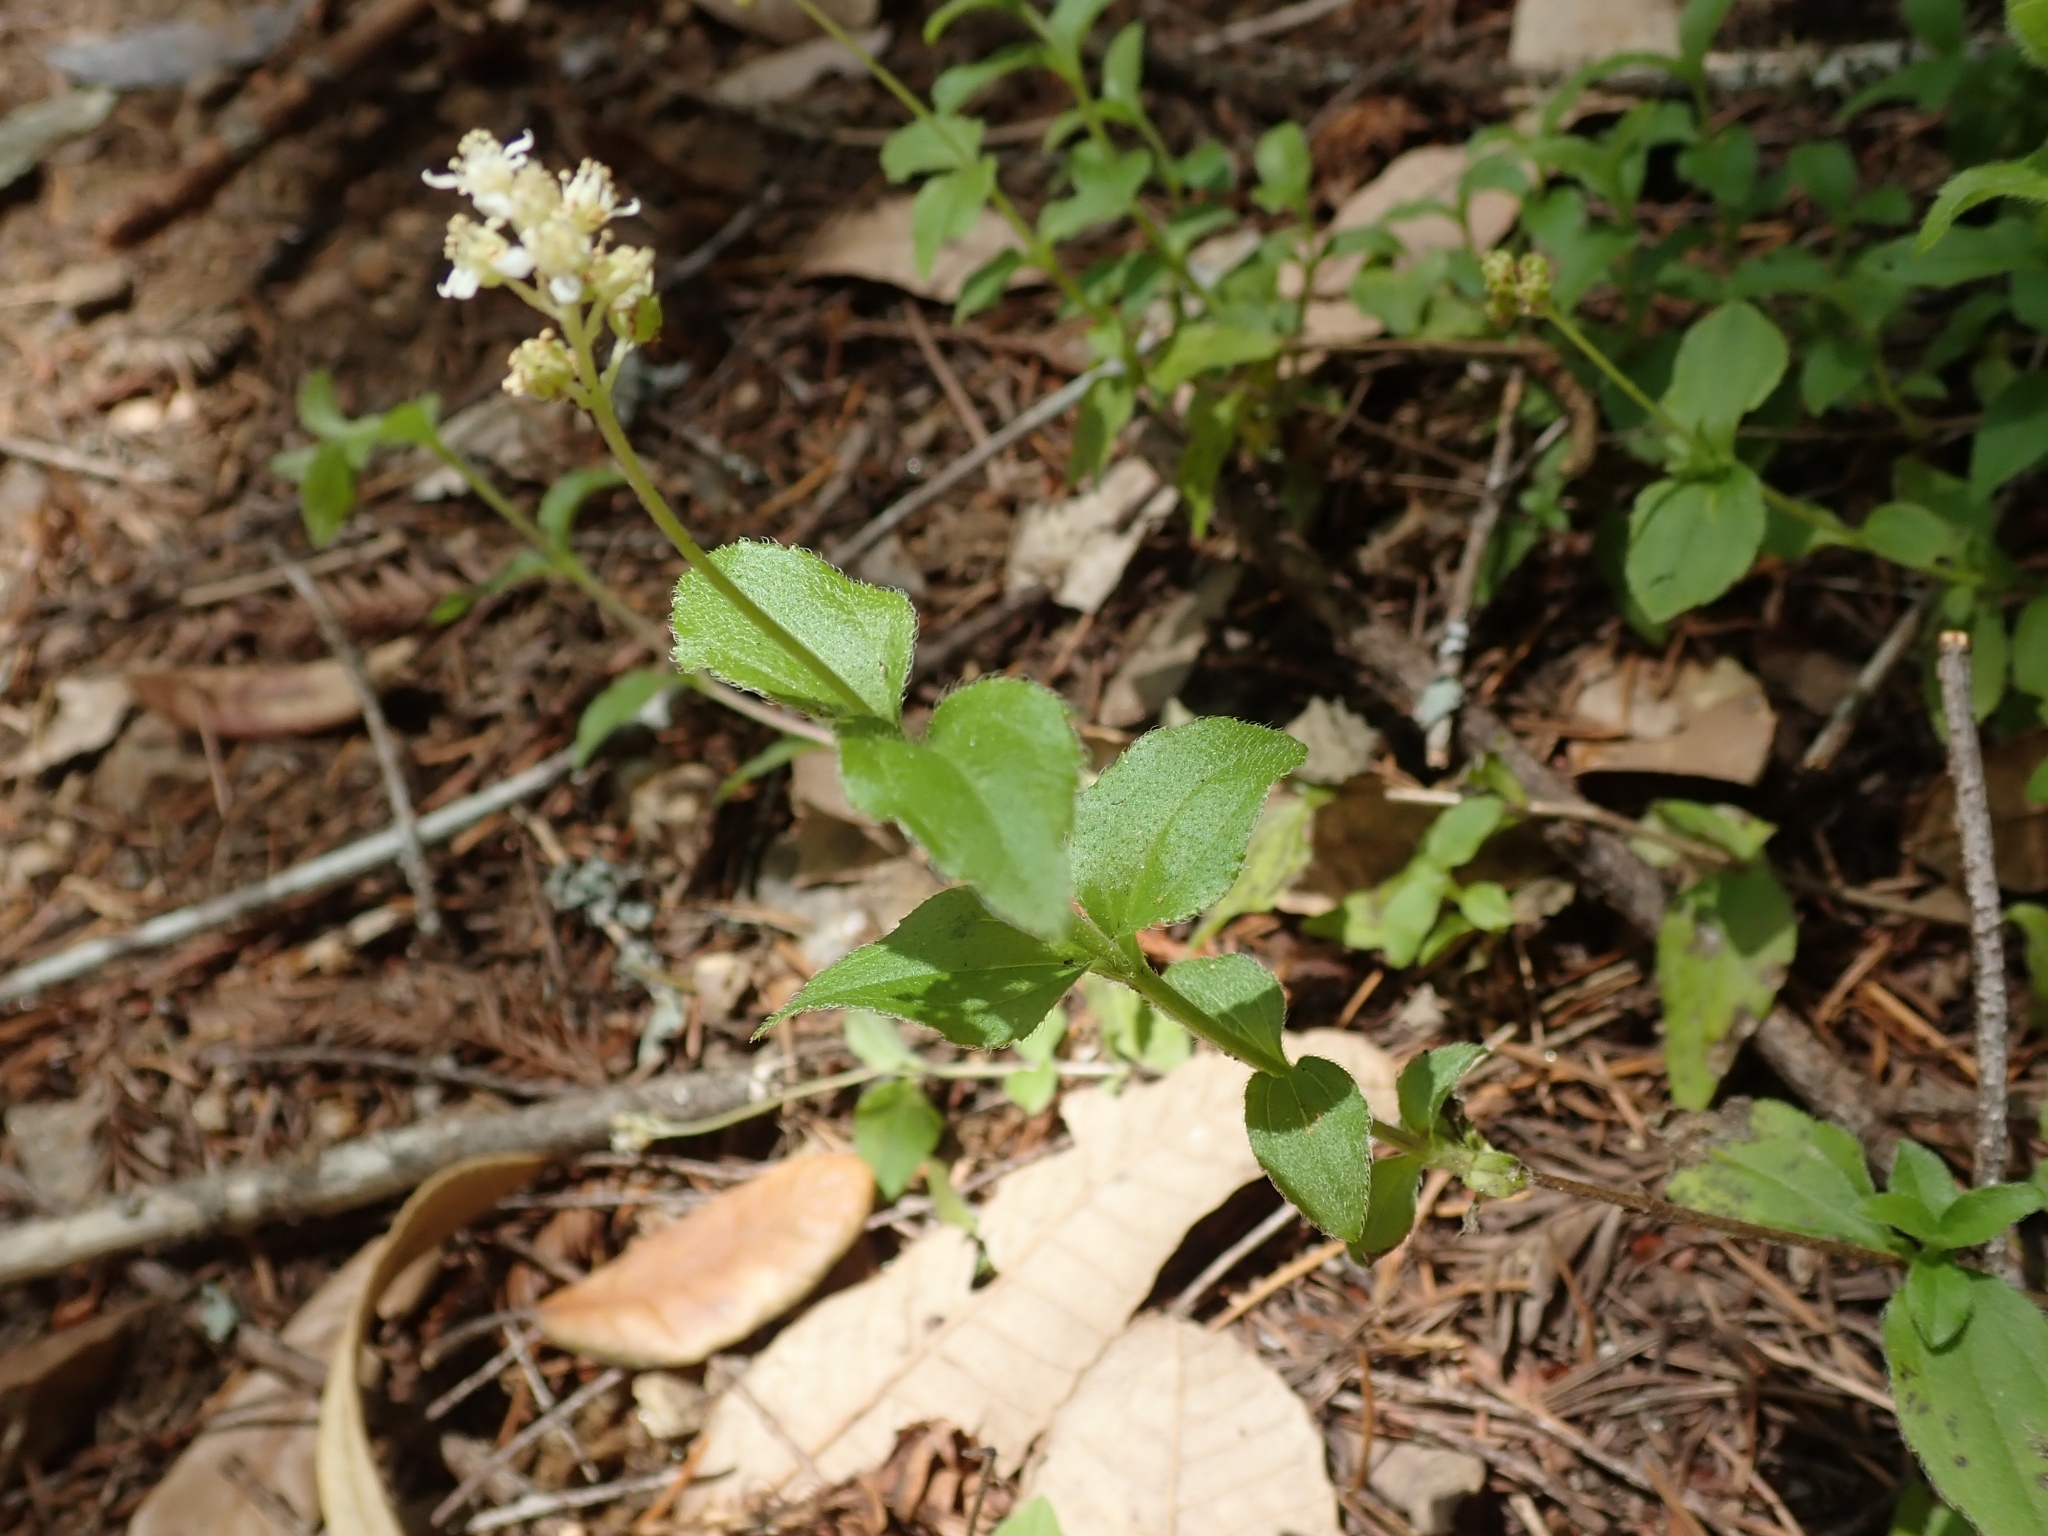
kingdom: Plantae
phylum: Tracheophyta
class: Magnoliopsida
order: Cornales
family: Hydrangeaceae
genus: Whipplea
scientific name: Whipplea modesta
